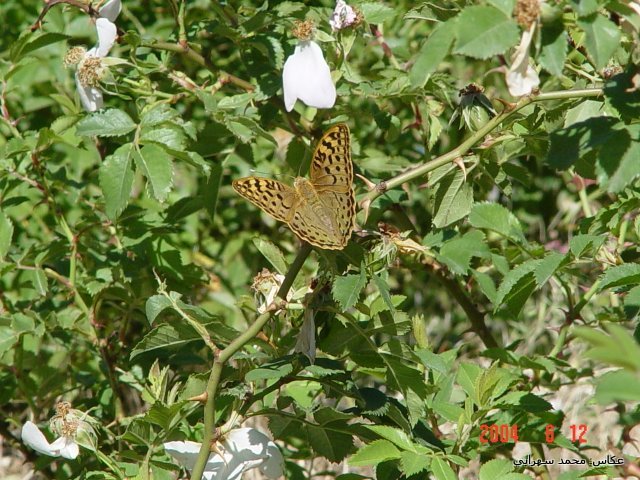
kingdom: Animalia
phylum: Arthropoda
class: Insecta
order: Lepidoptera
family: Nymphalidae
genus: Damora
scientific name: Damora pandora
